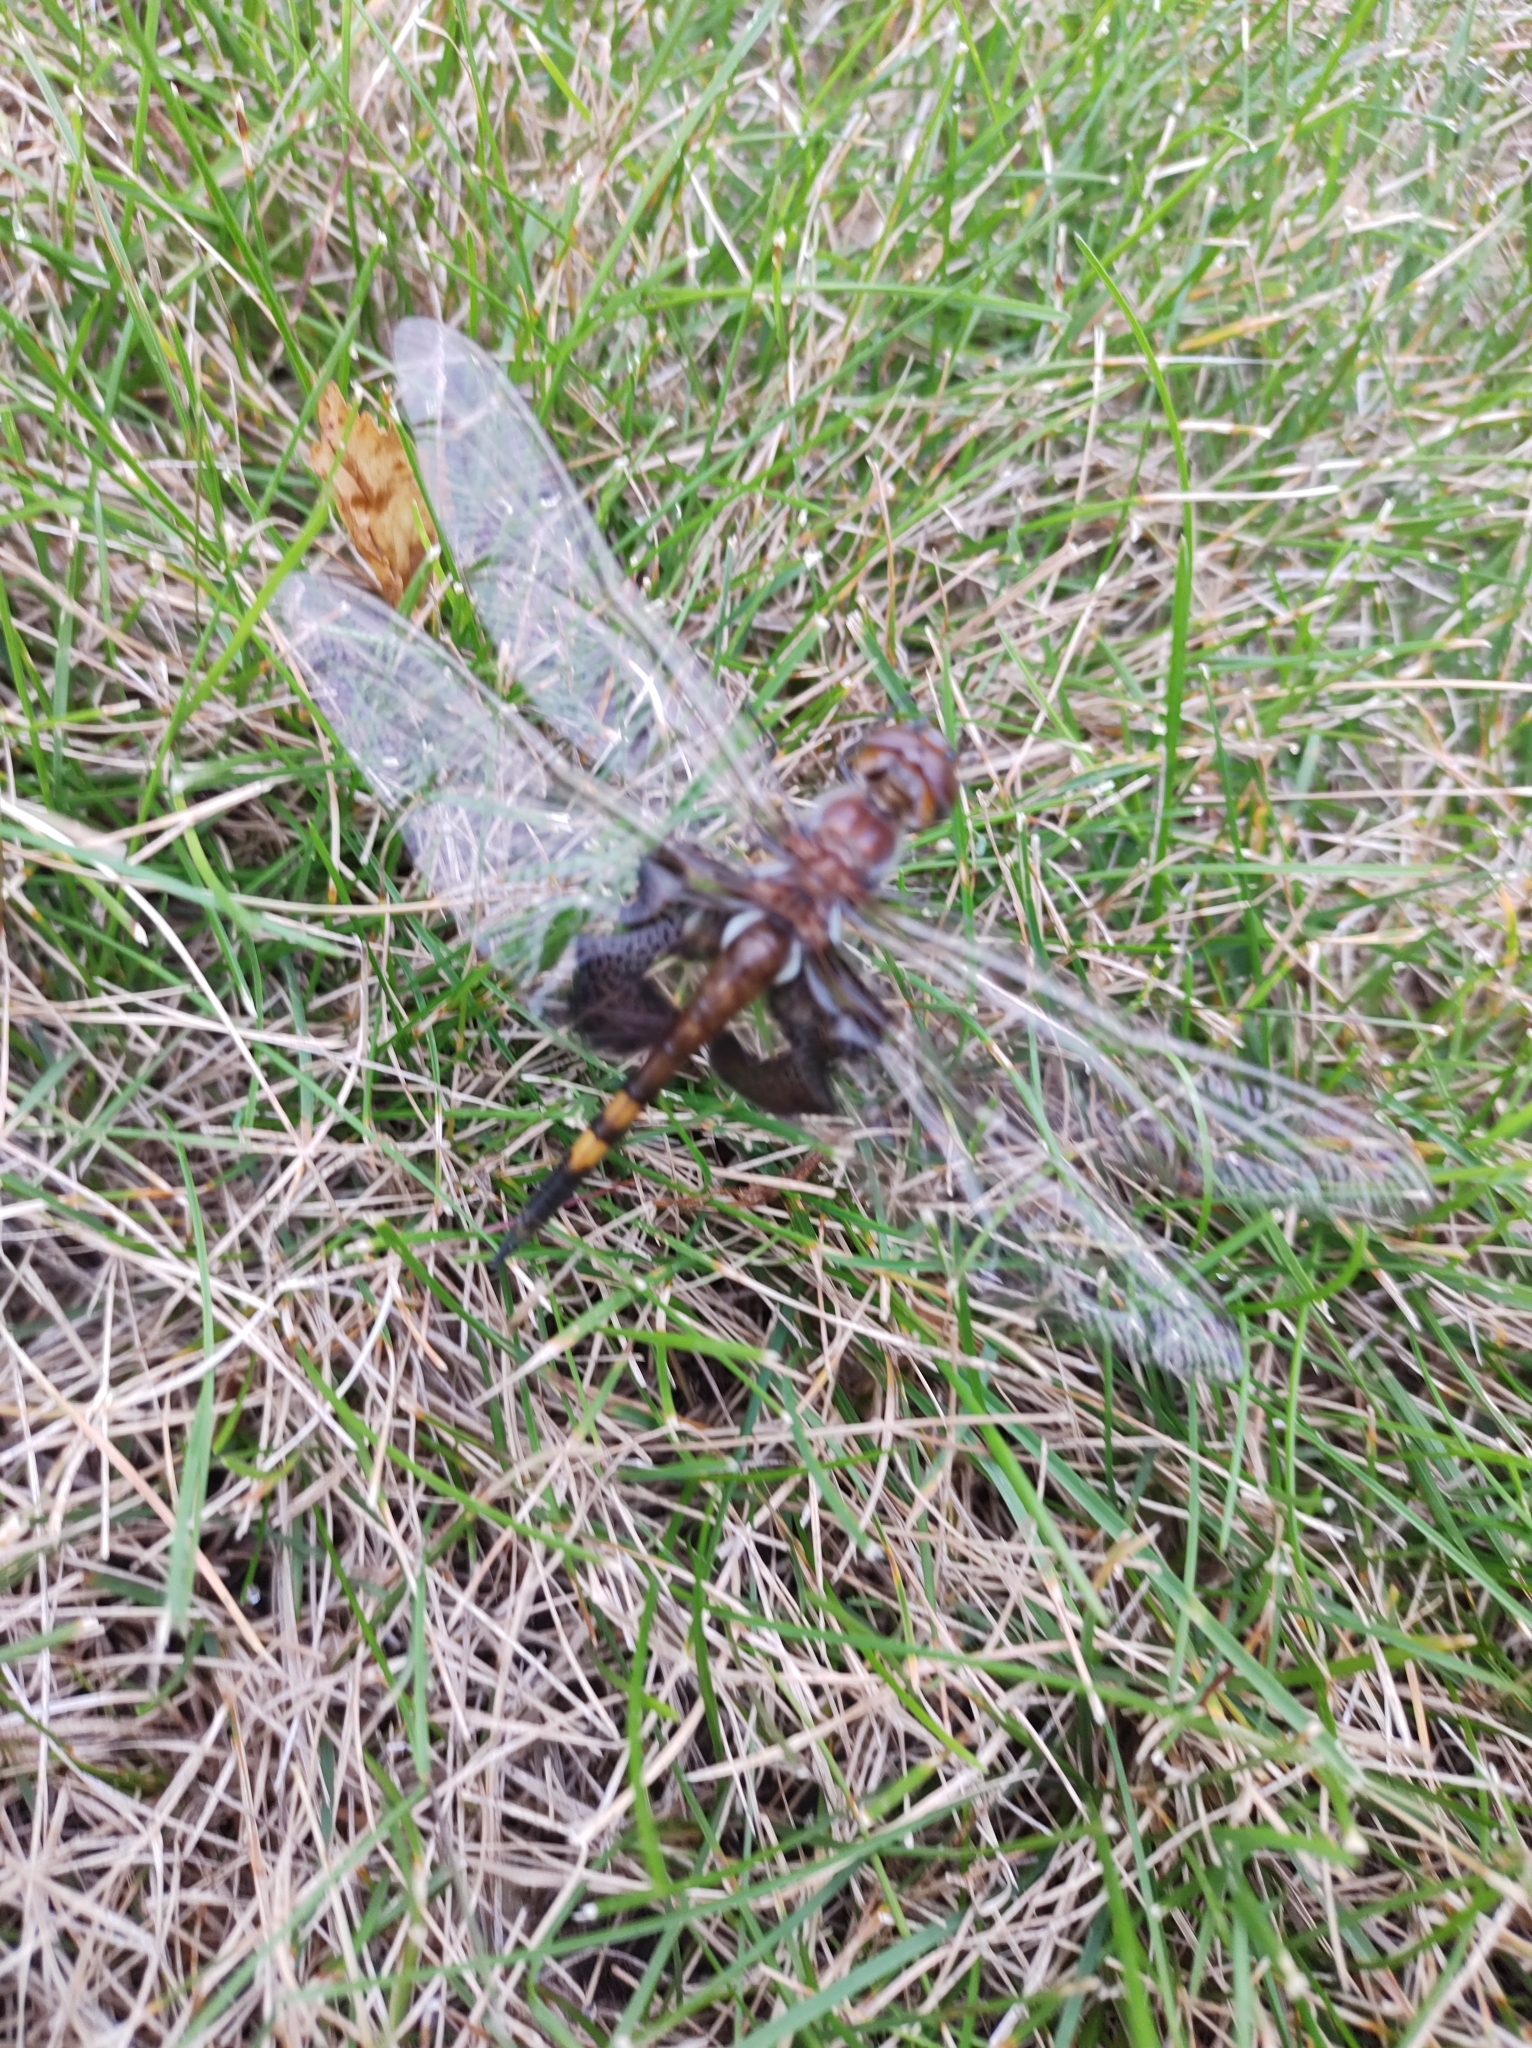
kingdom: Animalia
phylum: Arthropoda
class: Insecta
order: Odonata
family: Libellulidae
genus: Tramea
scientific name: Tramea lacerata
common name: Black saddlebags
